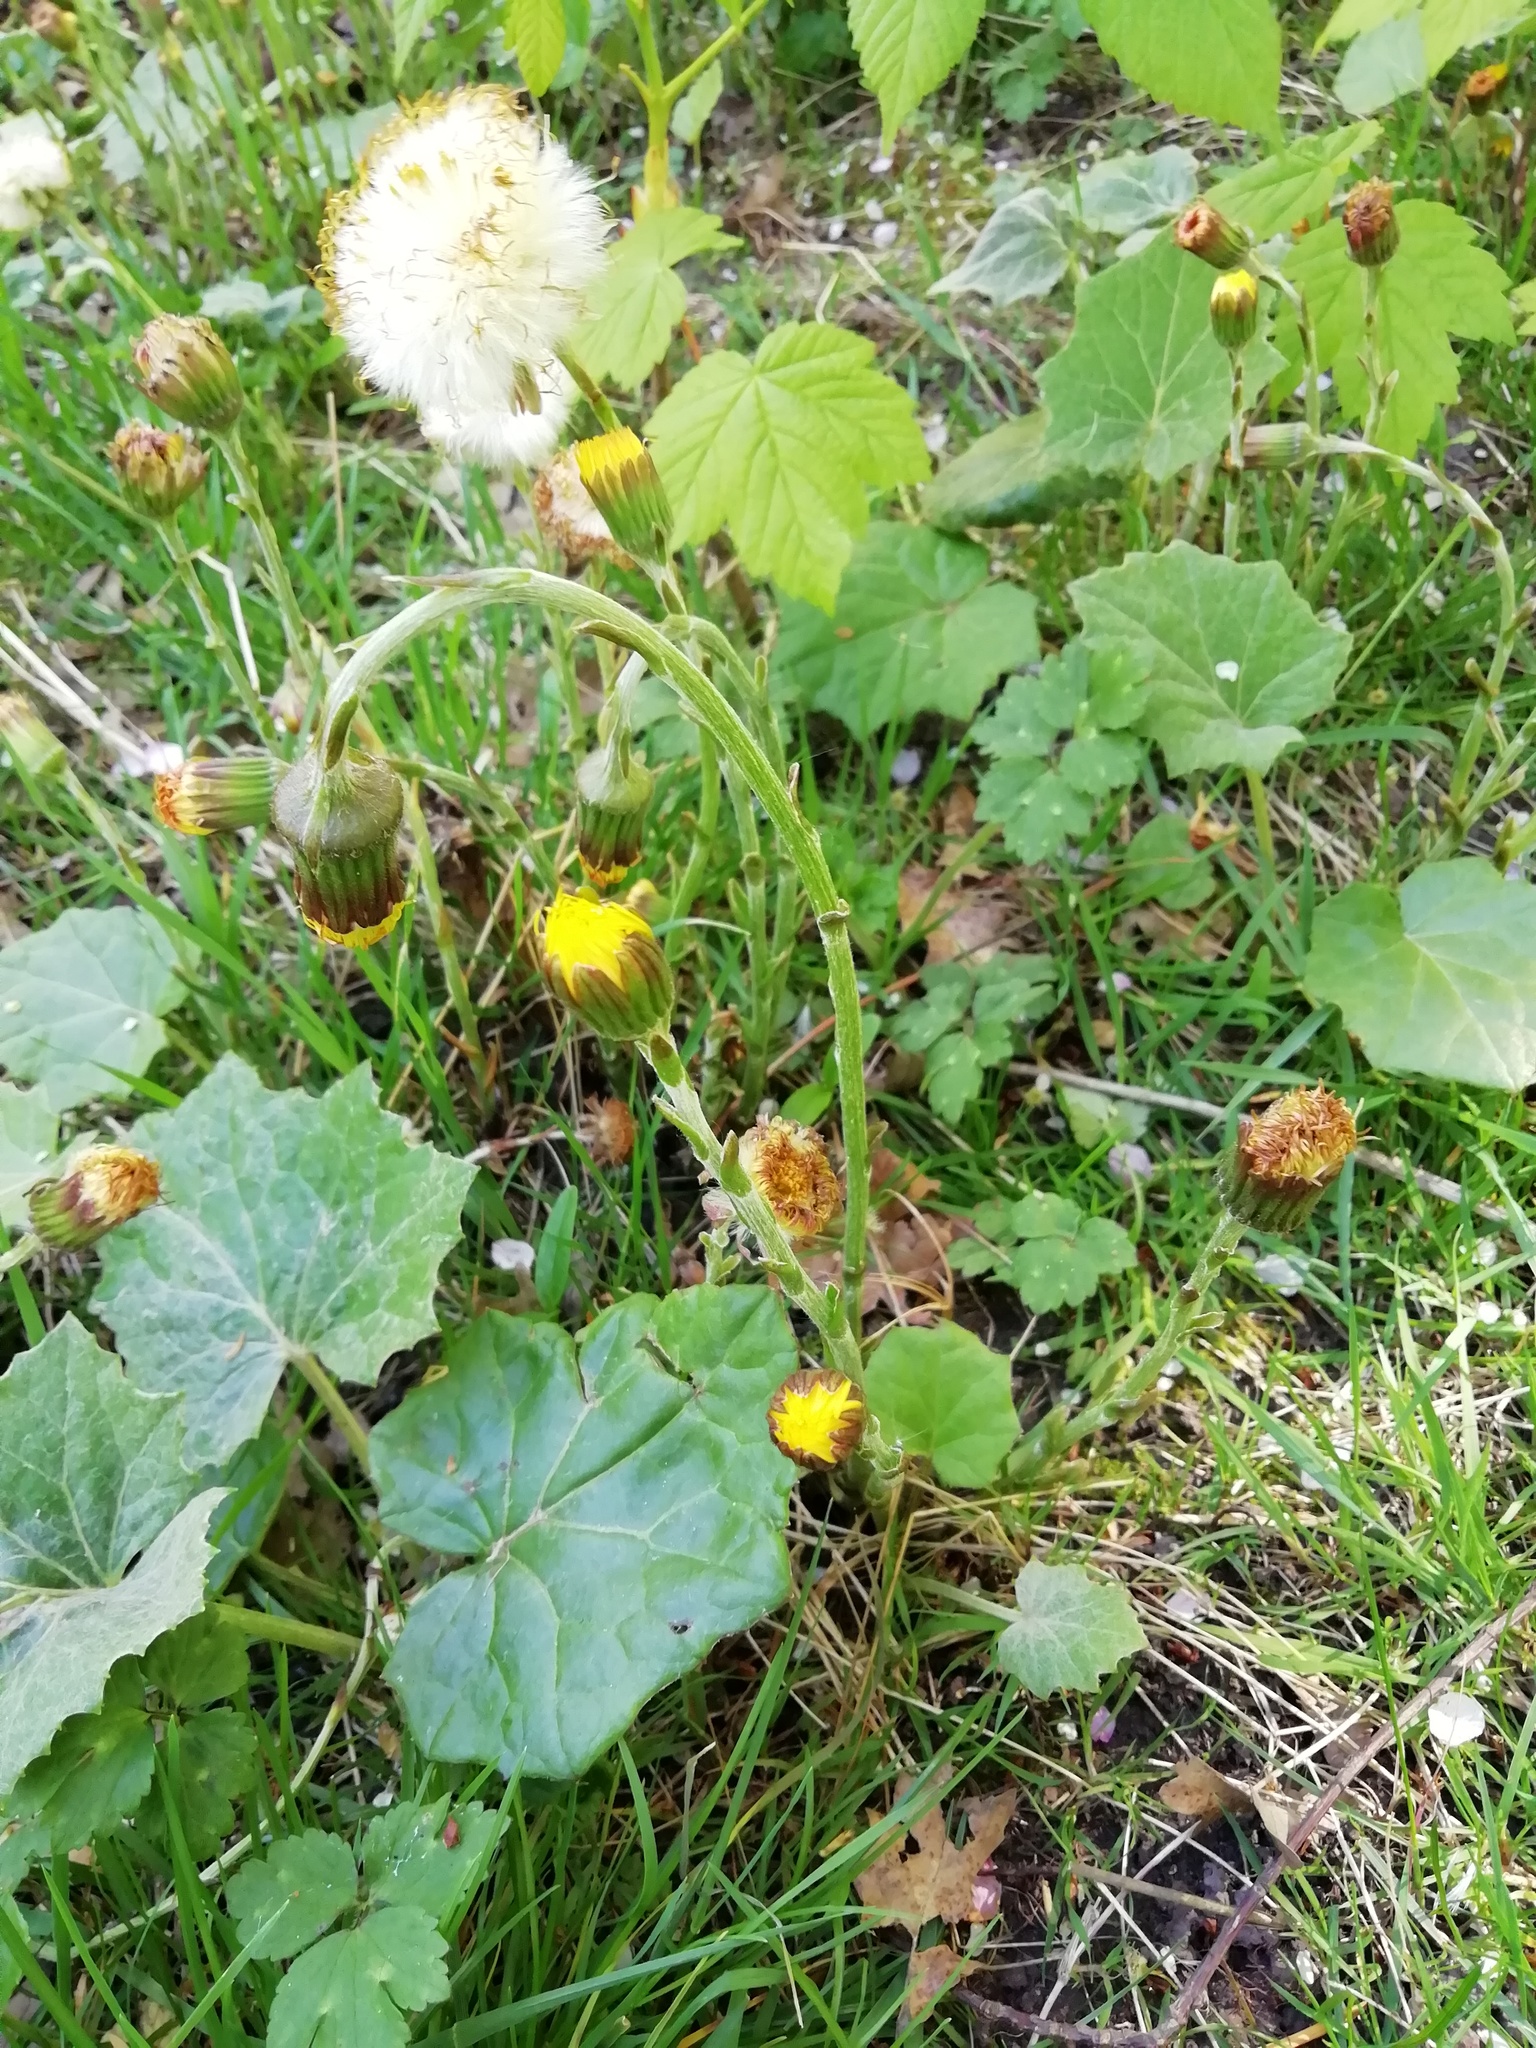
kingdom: Plantae
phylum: Tracheophyta
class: Magnoliopsida
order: Asterales
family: Asteraceae
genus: Tussilago
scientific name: Tussilago farfara
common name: Coltsfoot
